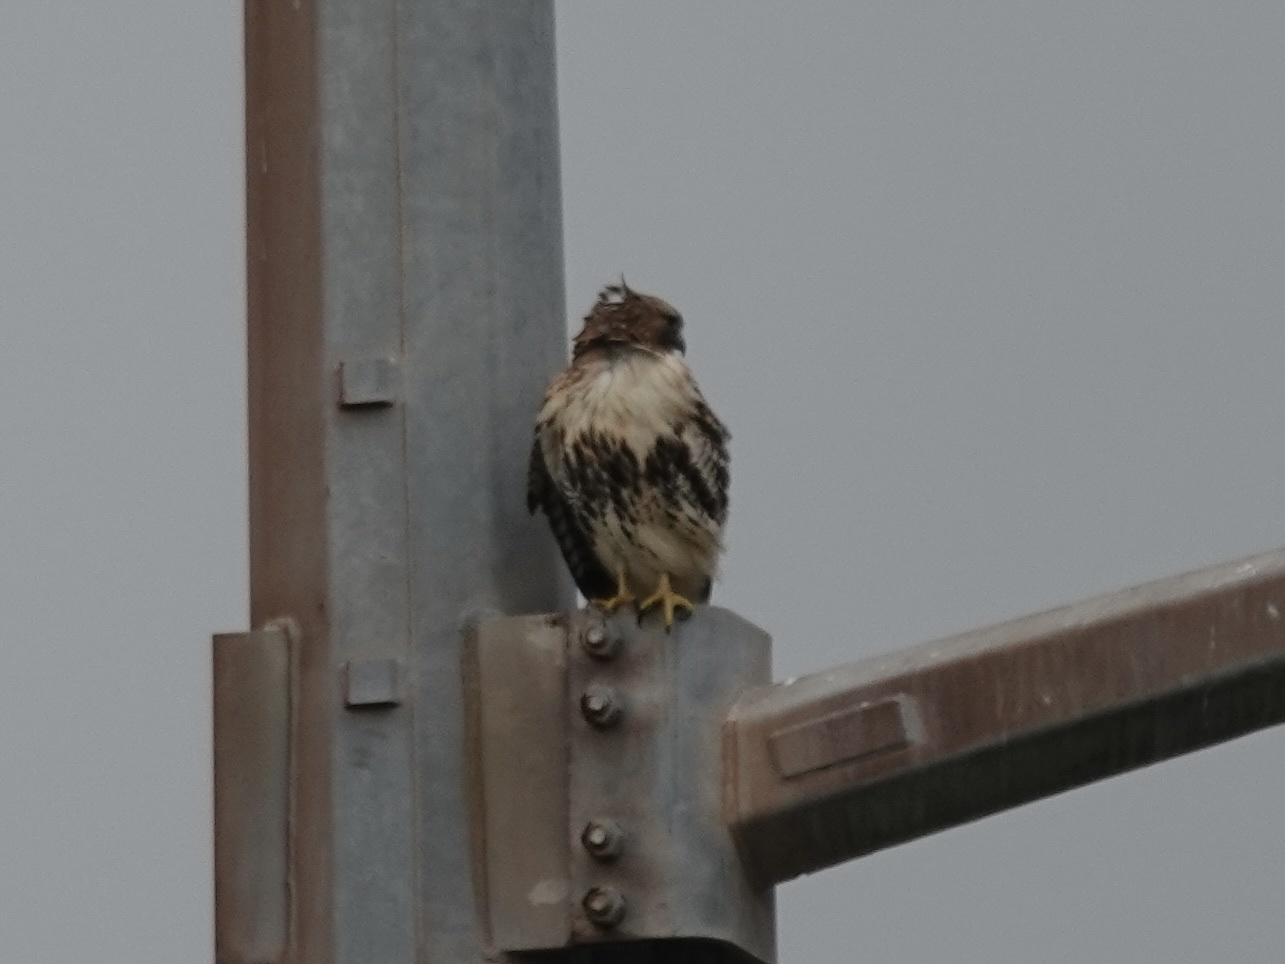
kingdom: Animalia
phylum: Chordata
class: Aves
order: Accipitriformes
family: Accipitridae
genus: Buteo
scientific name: Buteo jamaicensis
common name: Red-tailed hawk
